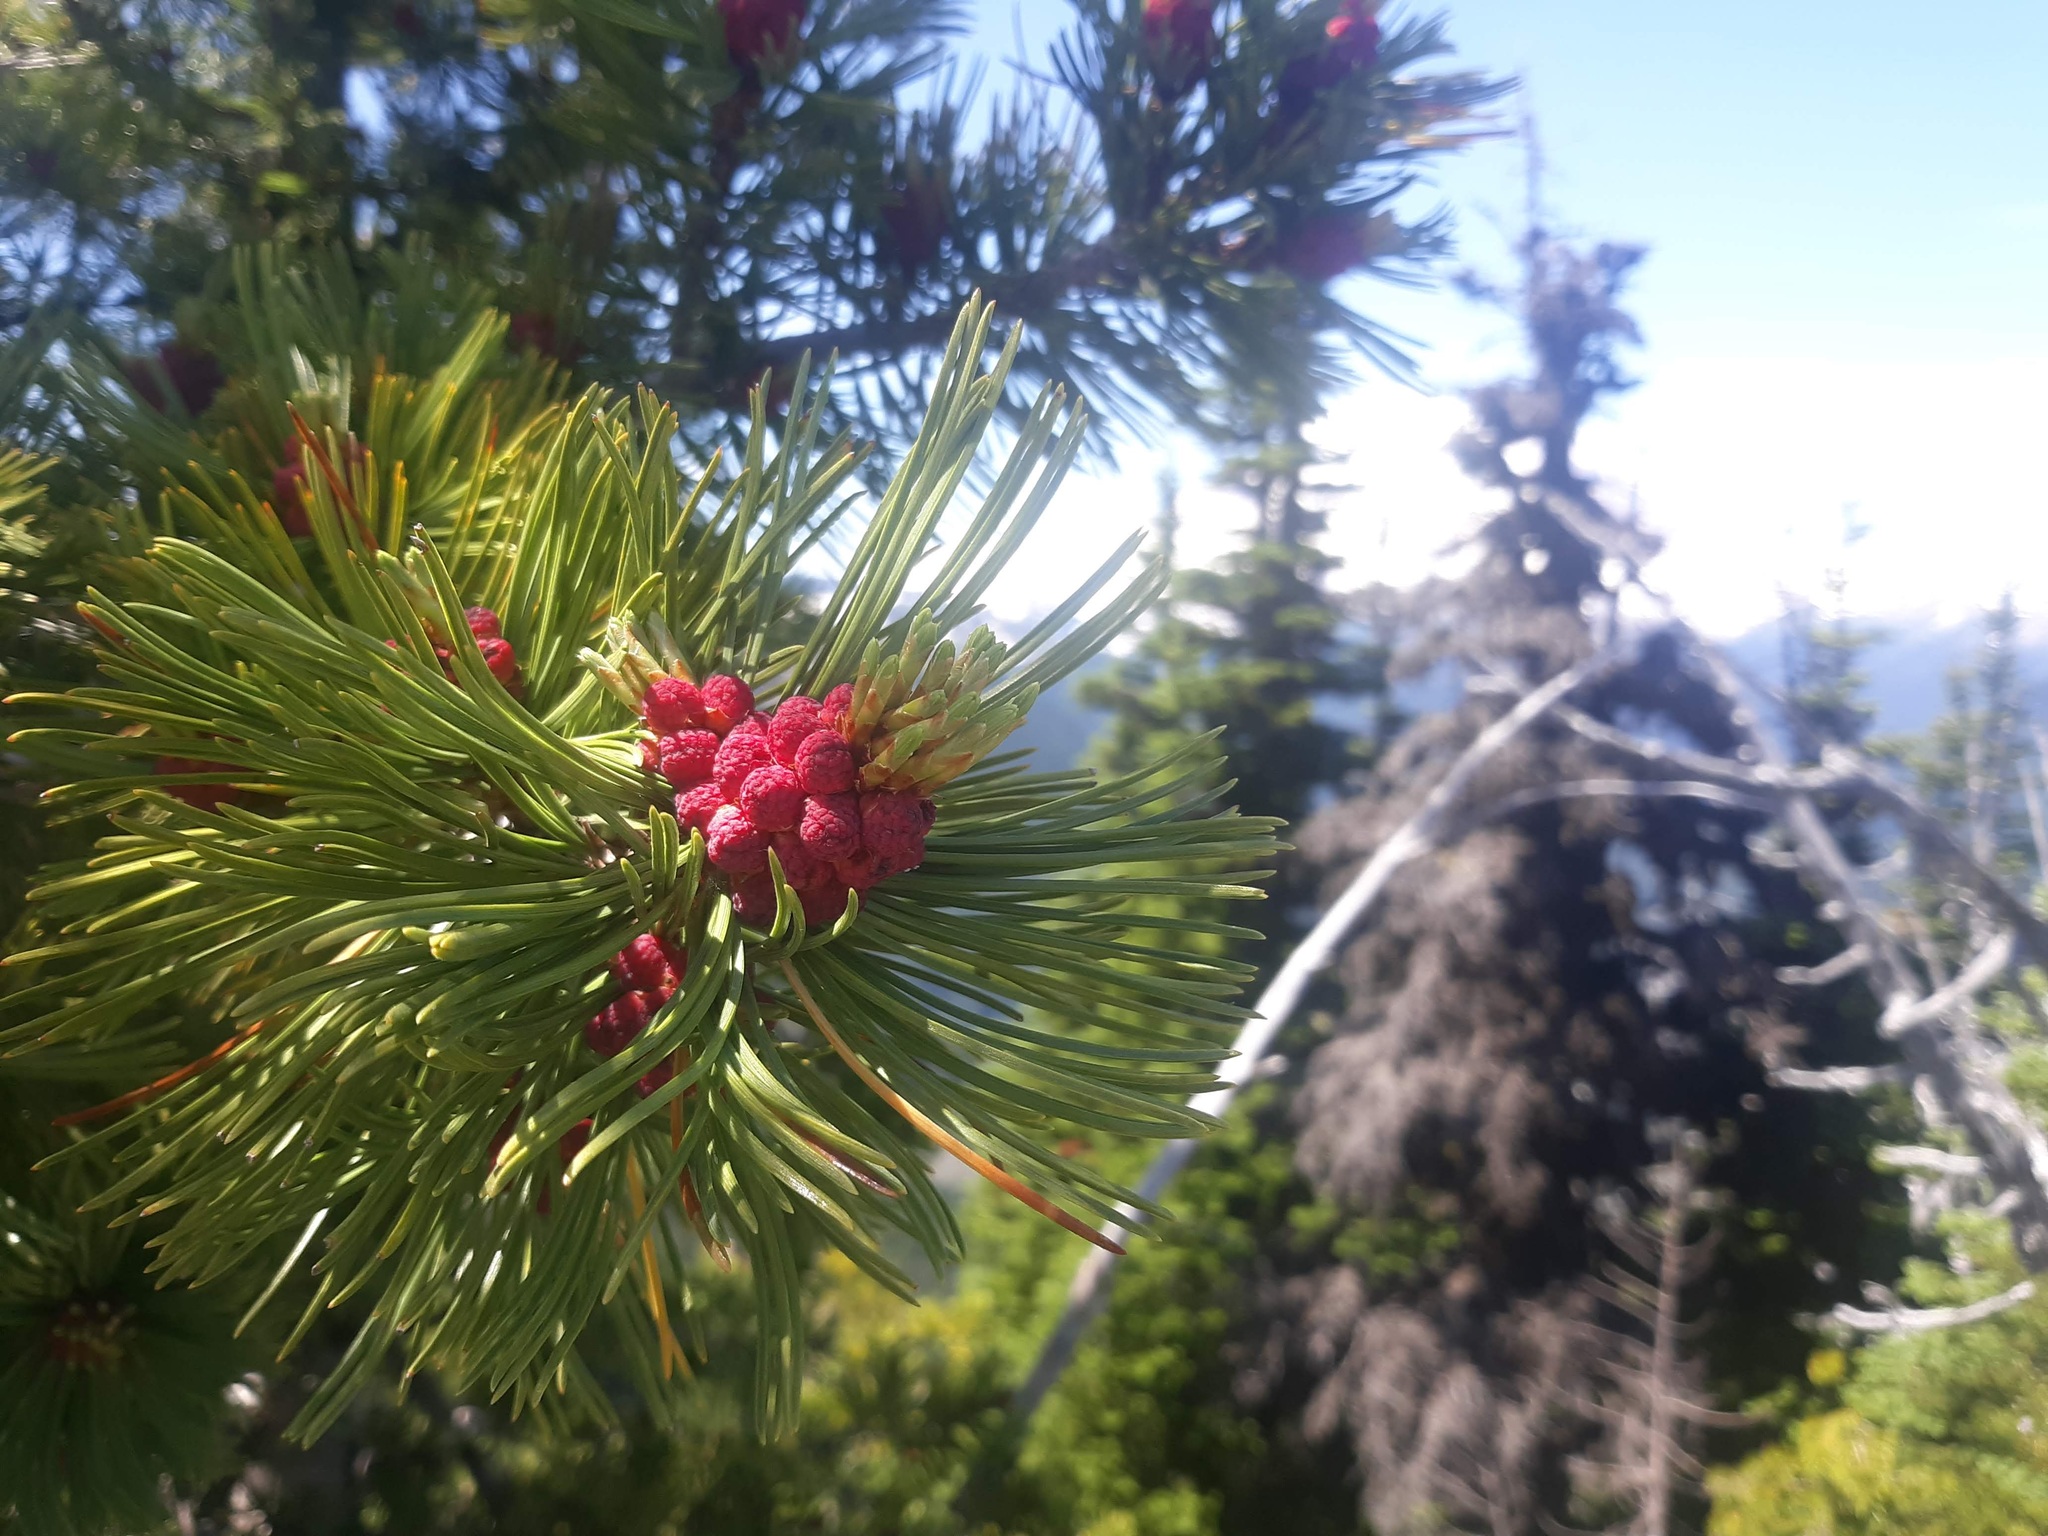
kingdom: Plantae
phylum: Tracheophyta
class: Pinopsida
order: Pinales
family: Pinaceae
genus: Pinus
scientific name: Pinus albicaulis
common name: Whitebark pine
